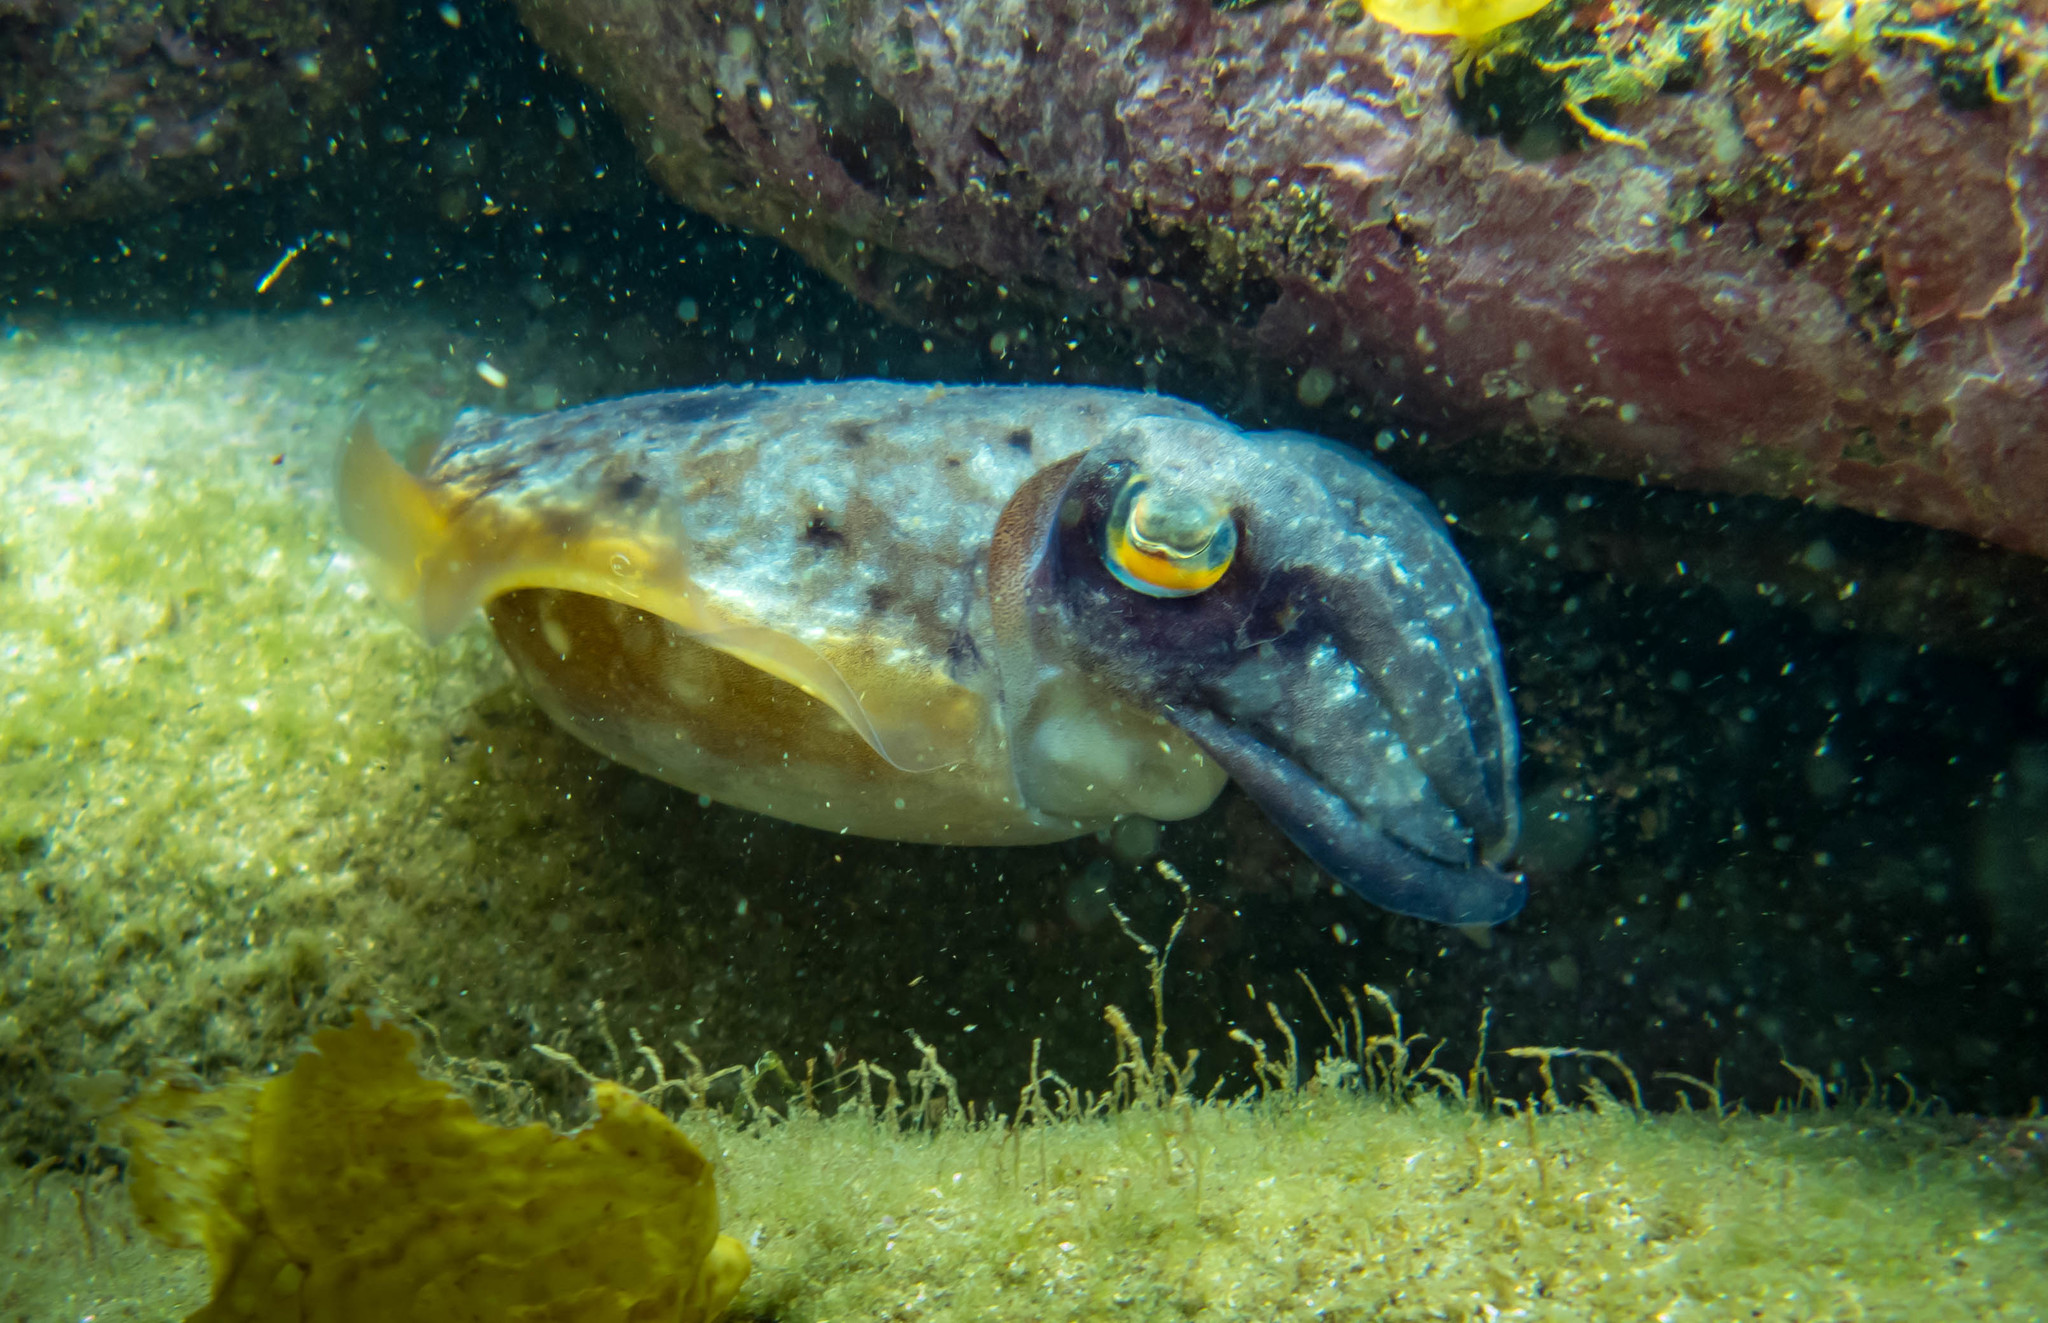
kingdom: Animalia
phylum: Mollusca
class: Cephalopoda
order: Sepiida
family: Sepiidae
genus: Ascarosepion
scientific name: Ascarosepion mestus
